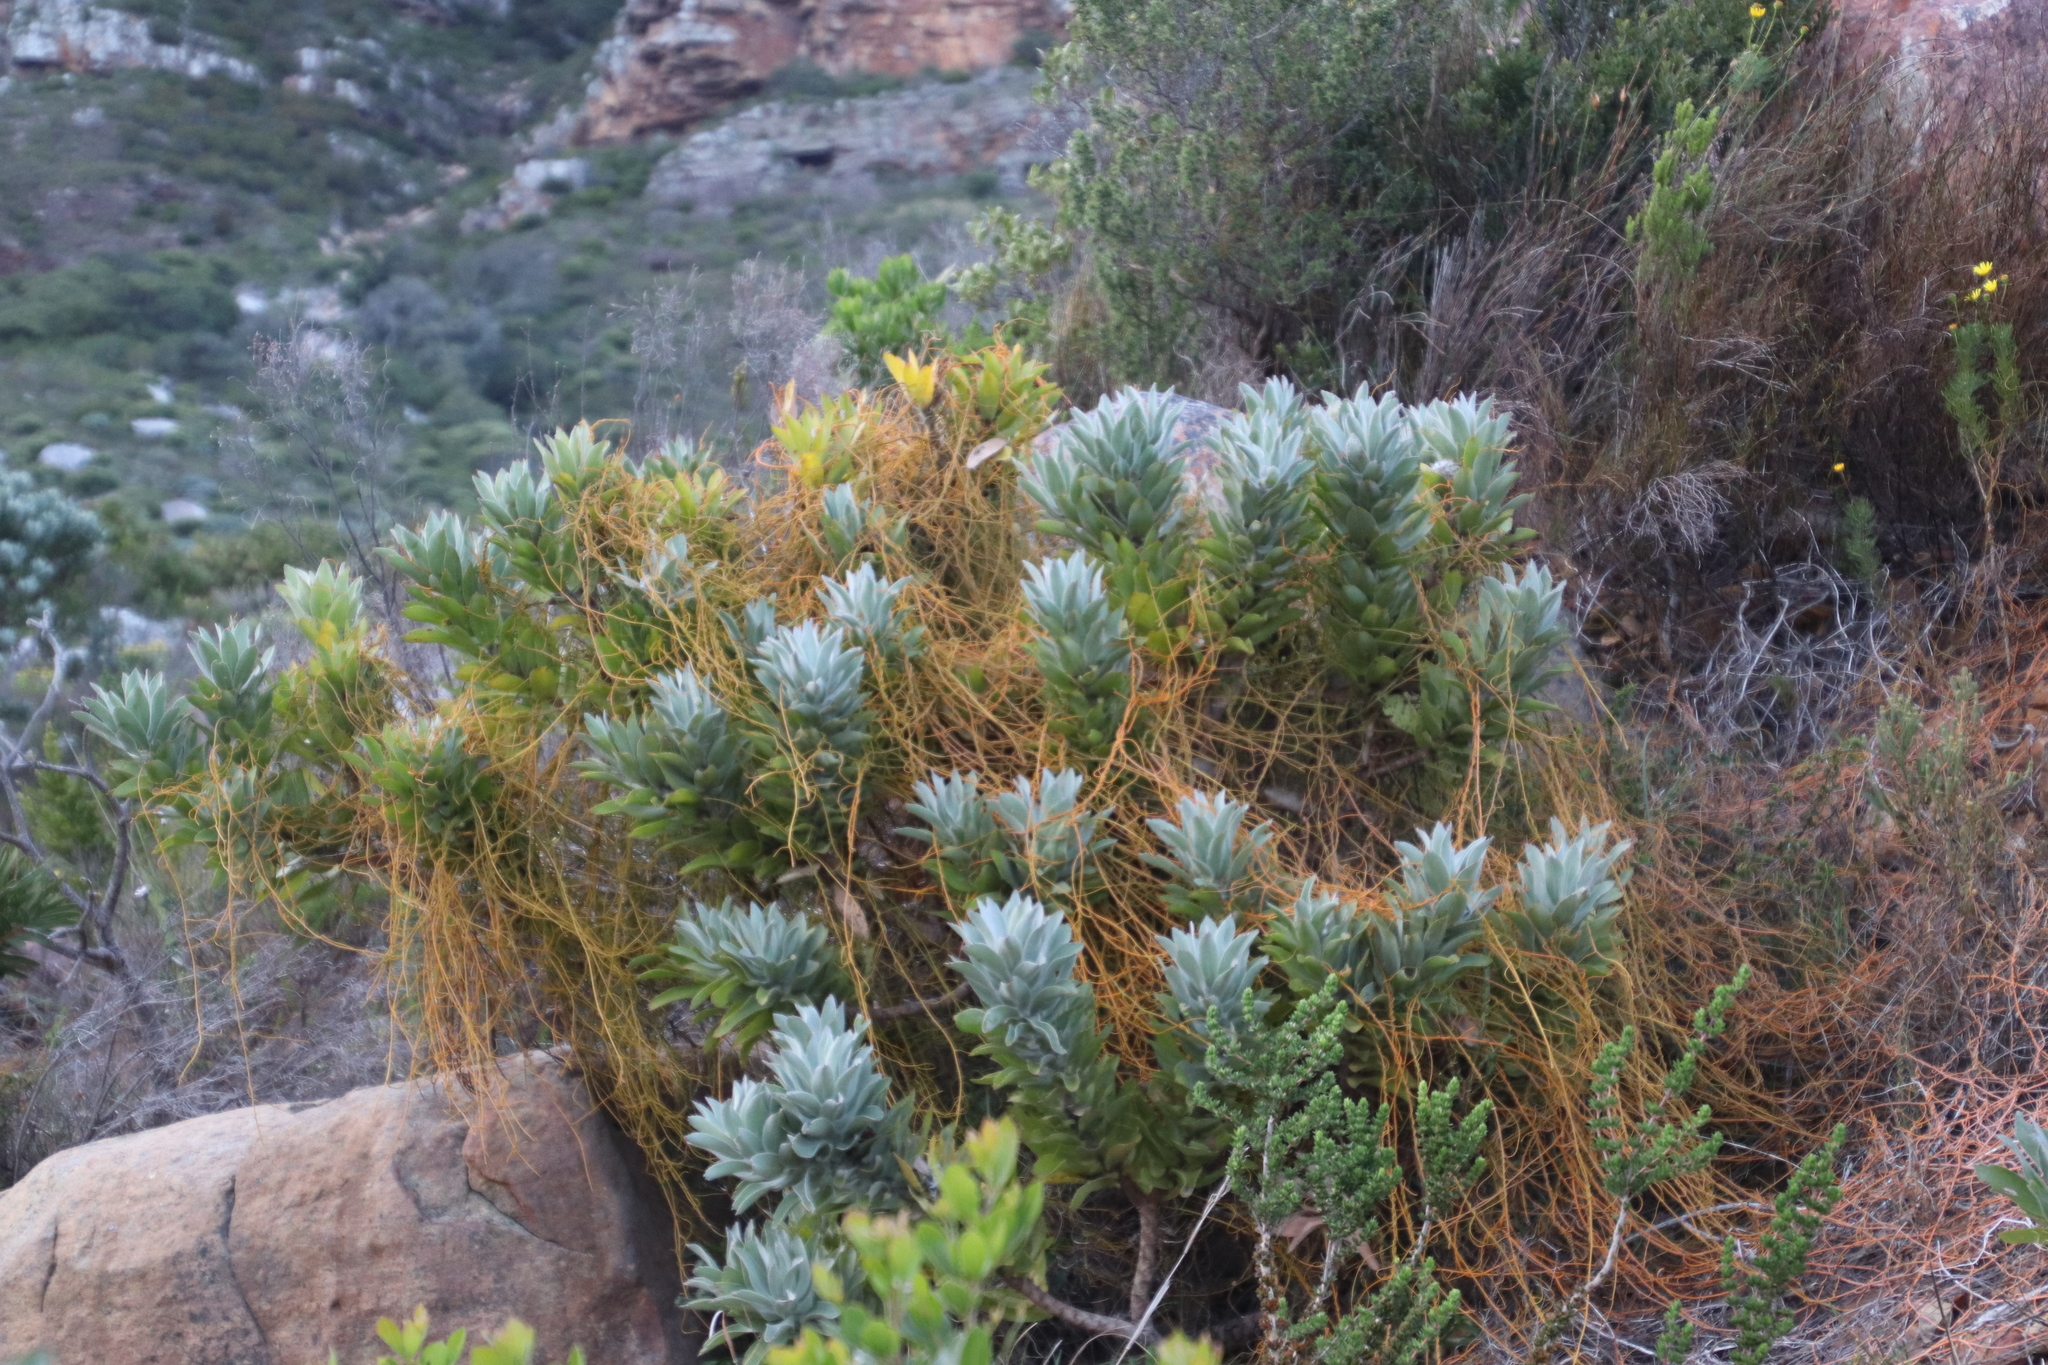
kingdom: Plantae
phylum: Tracheophyta
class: Magnoliopsida
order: Laurales
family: Lauraceae
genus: Cassytha
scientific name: Cassytha ciliolata
